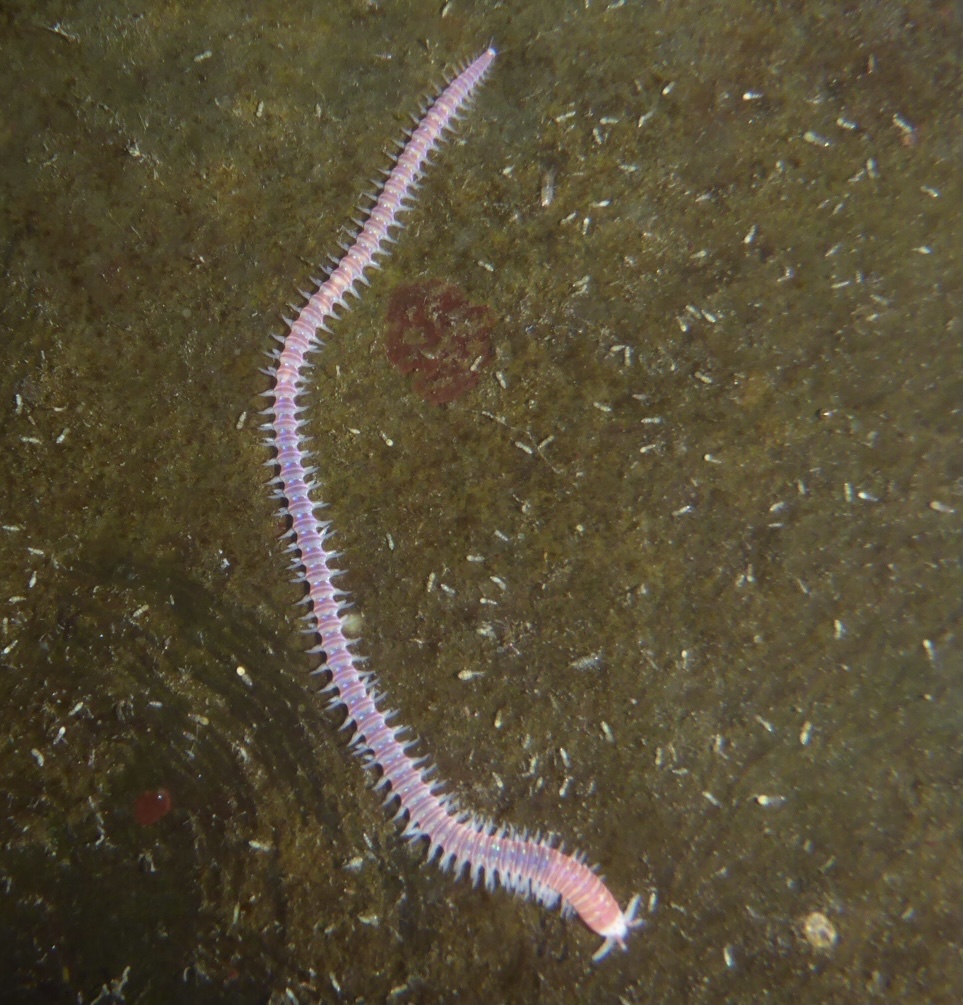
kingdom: Animalia
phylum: Annelida
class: Polychaeta
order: Eunicida
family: Dorvilleidae
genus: Dorvillea
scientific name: Dorvillea moniloceras
